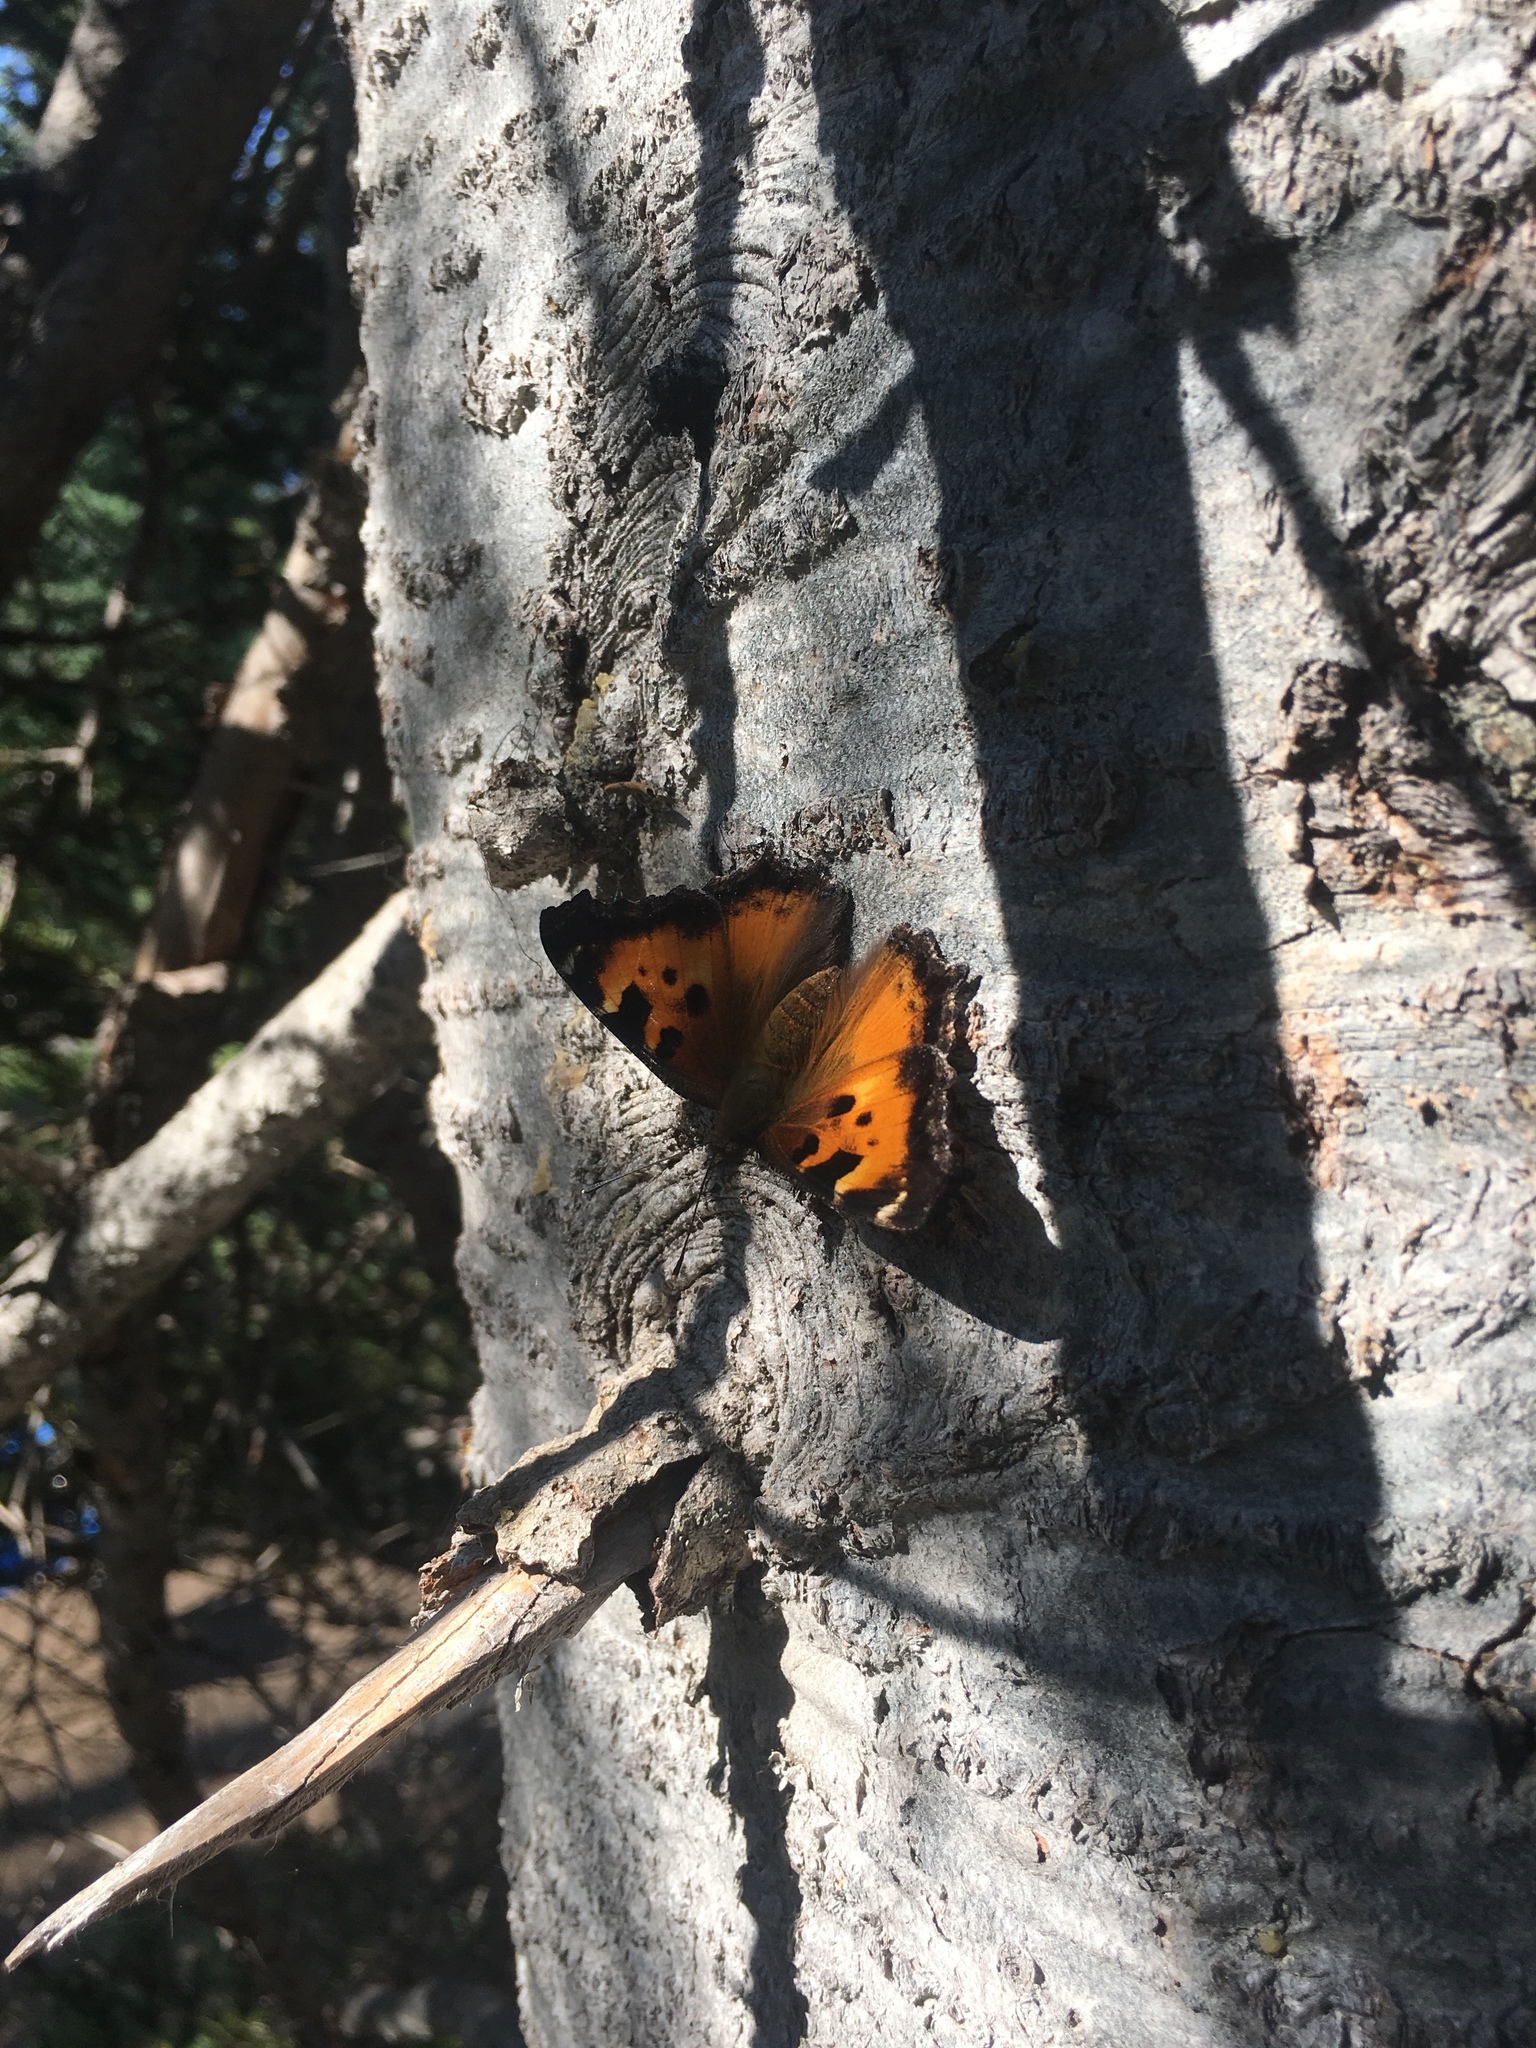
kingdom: Animalia
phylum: Arthropoda
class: Insecta
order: Lepidoptera
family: Nymphalidae
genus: Nymphalis
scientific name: Nymphalis californica
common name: California tortoiseshell
